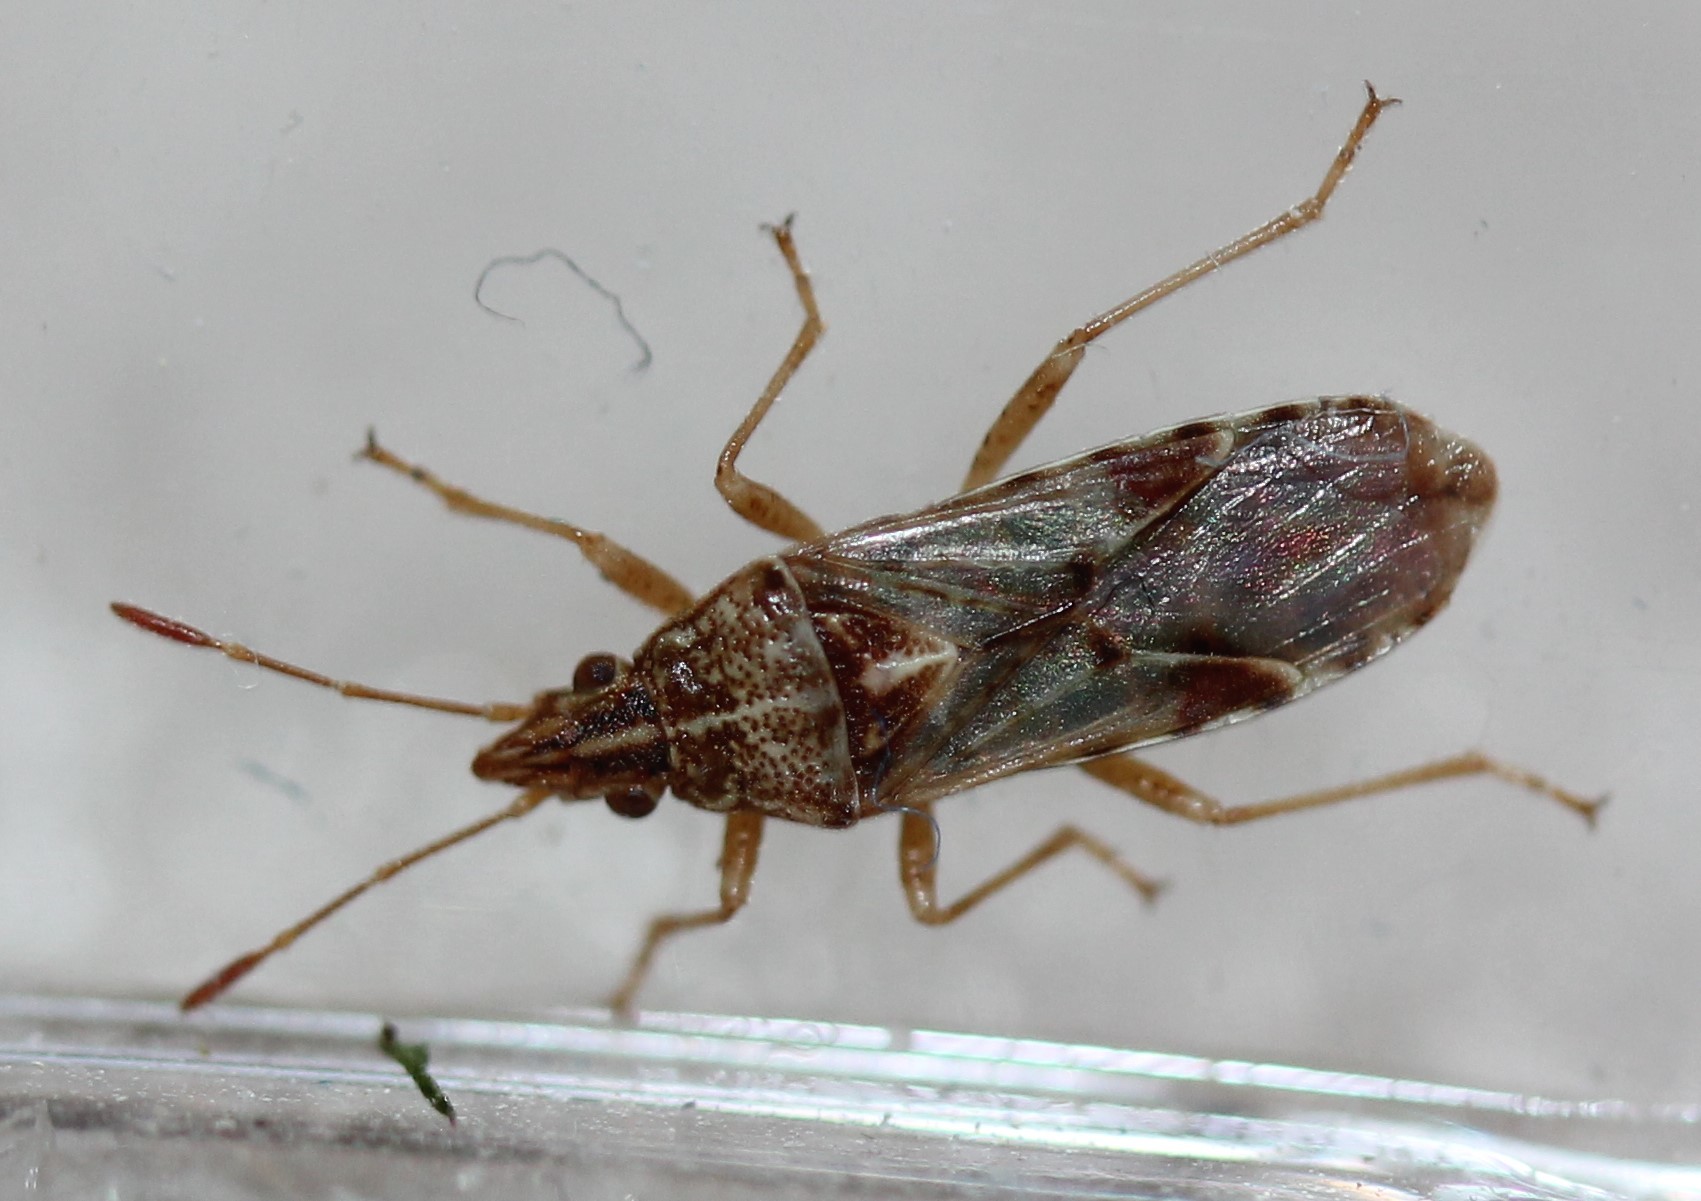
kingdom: Animalia
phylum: Arthropoda
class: Insecta
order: Hemiptera
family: Lygaeidae
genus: Belonochilus
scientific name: Belonochilus numenius
